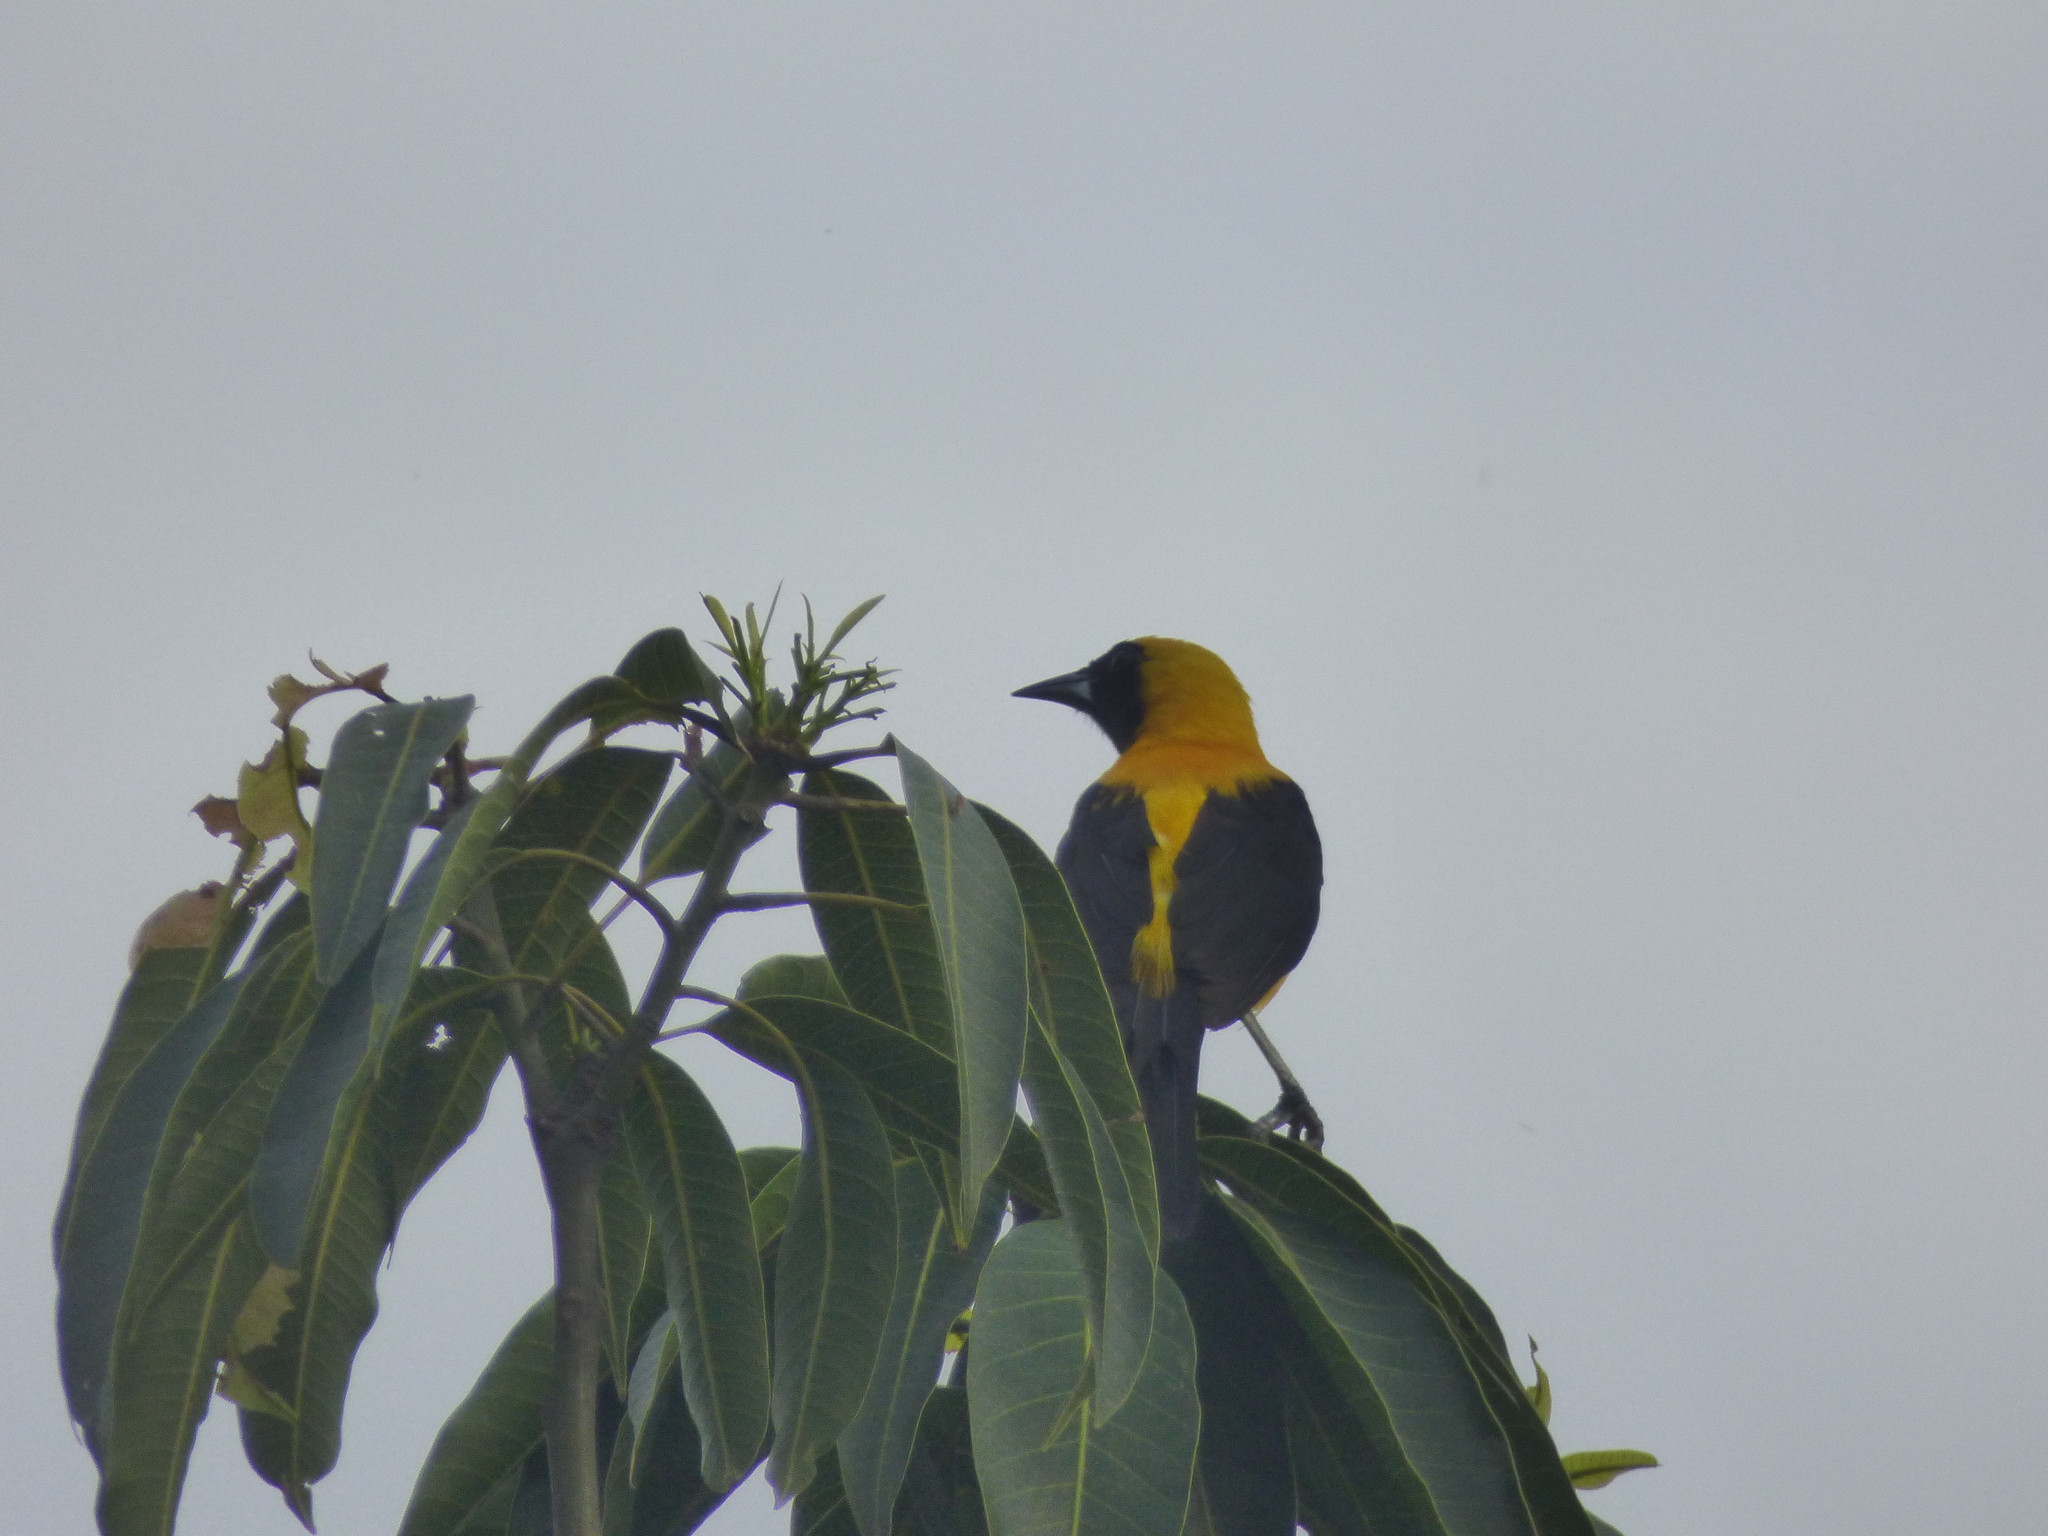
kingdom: Animalia
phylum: Chordata
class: Aves
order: Passeriformes
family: Icteridae
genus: Icterus
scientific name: Icterus chrysater
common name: Yellow-backed oriole
